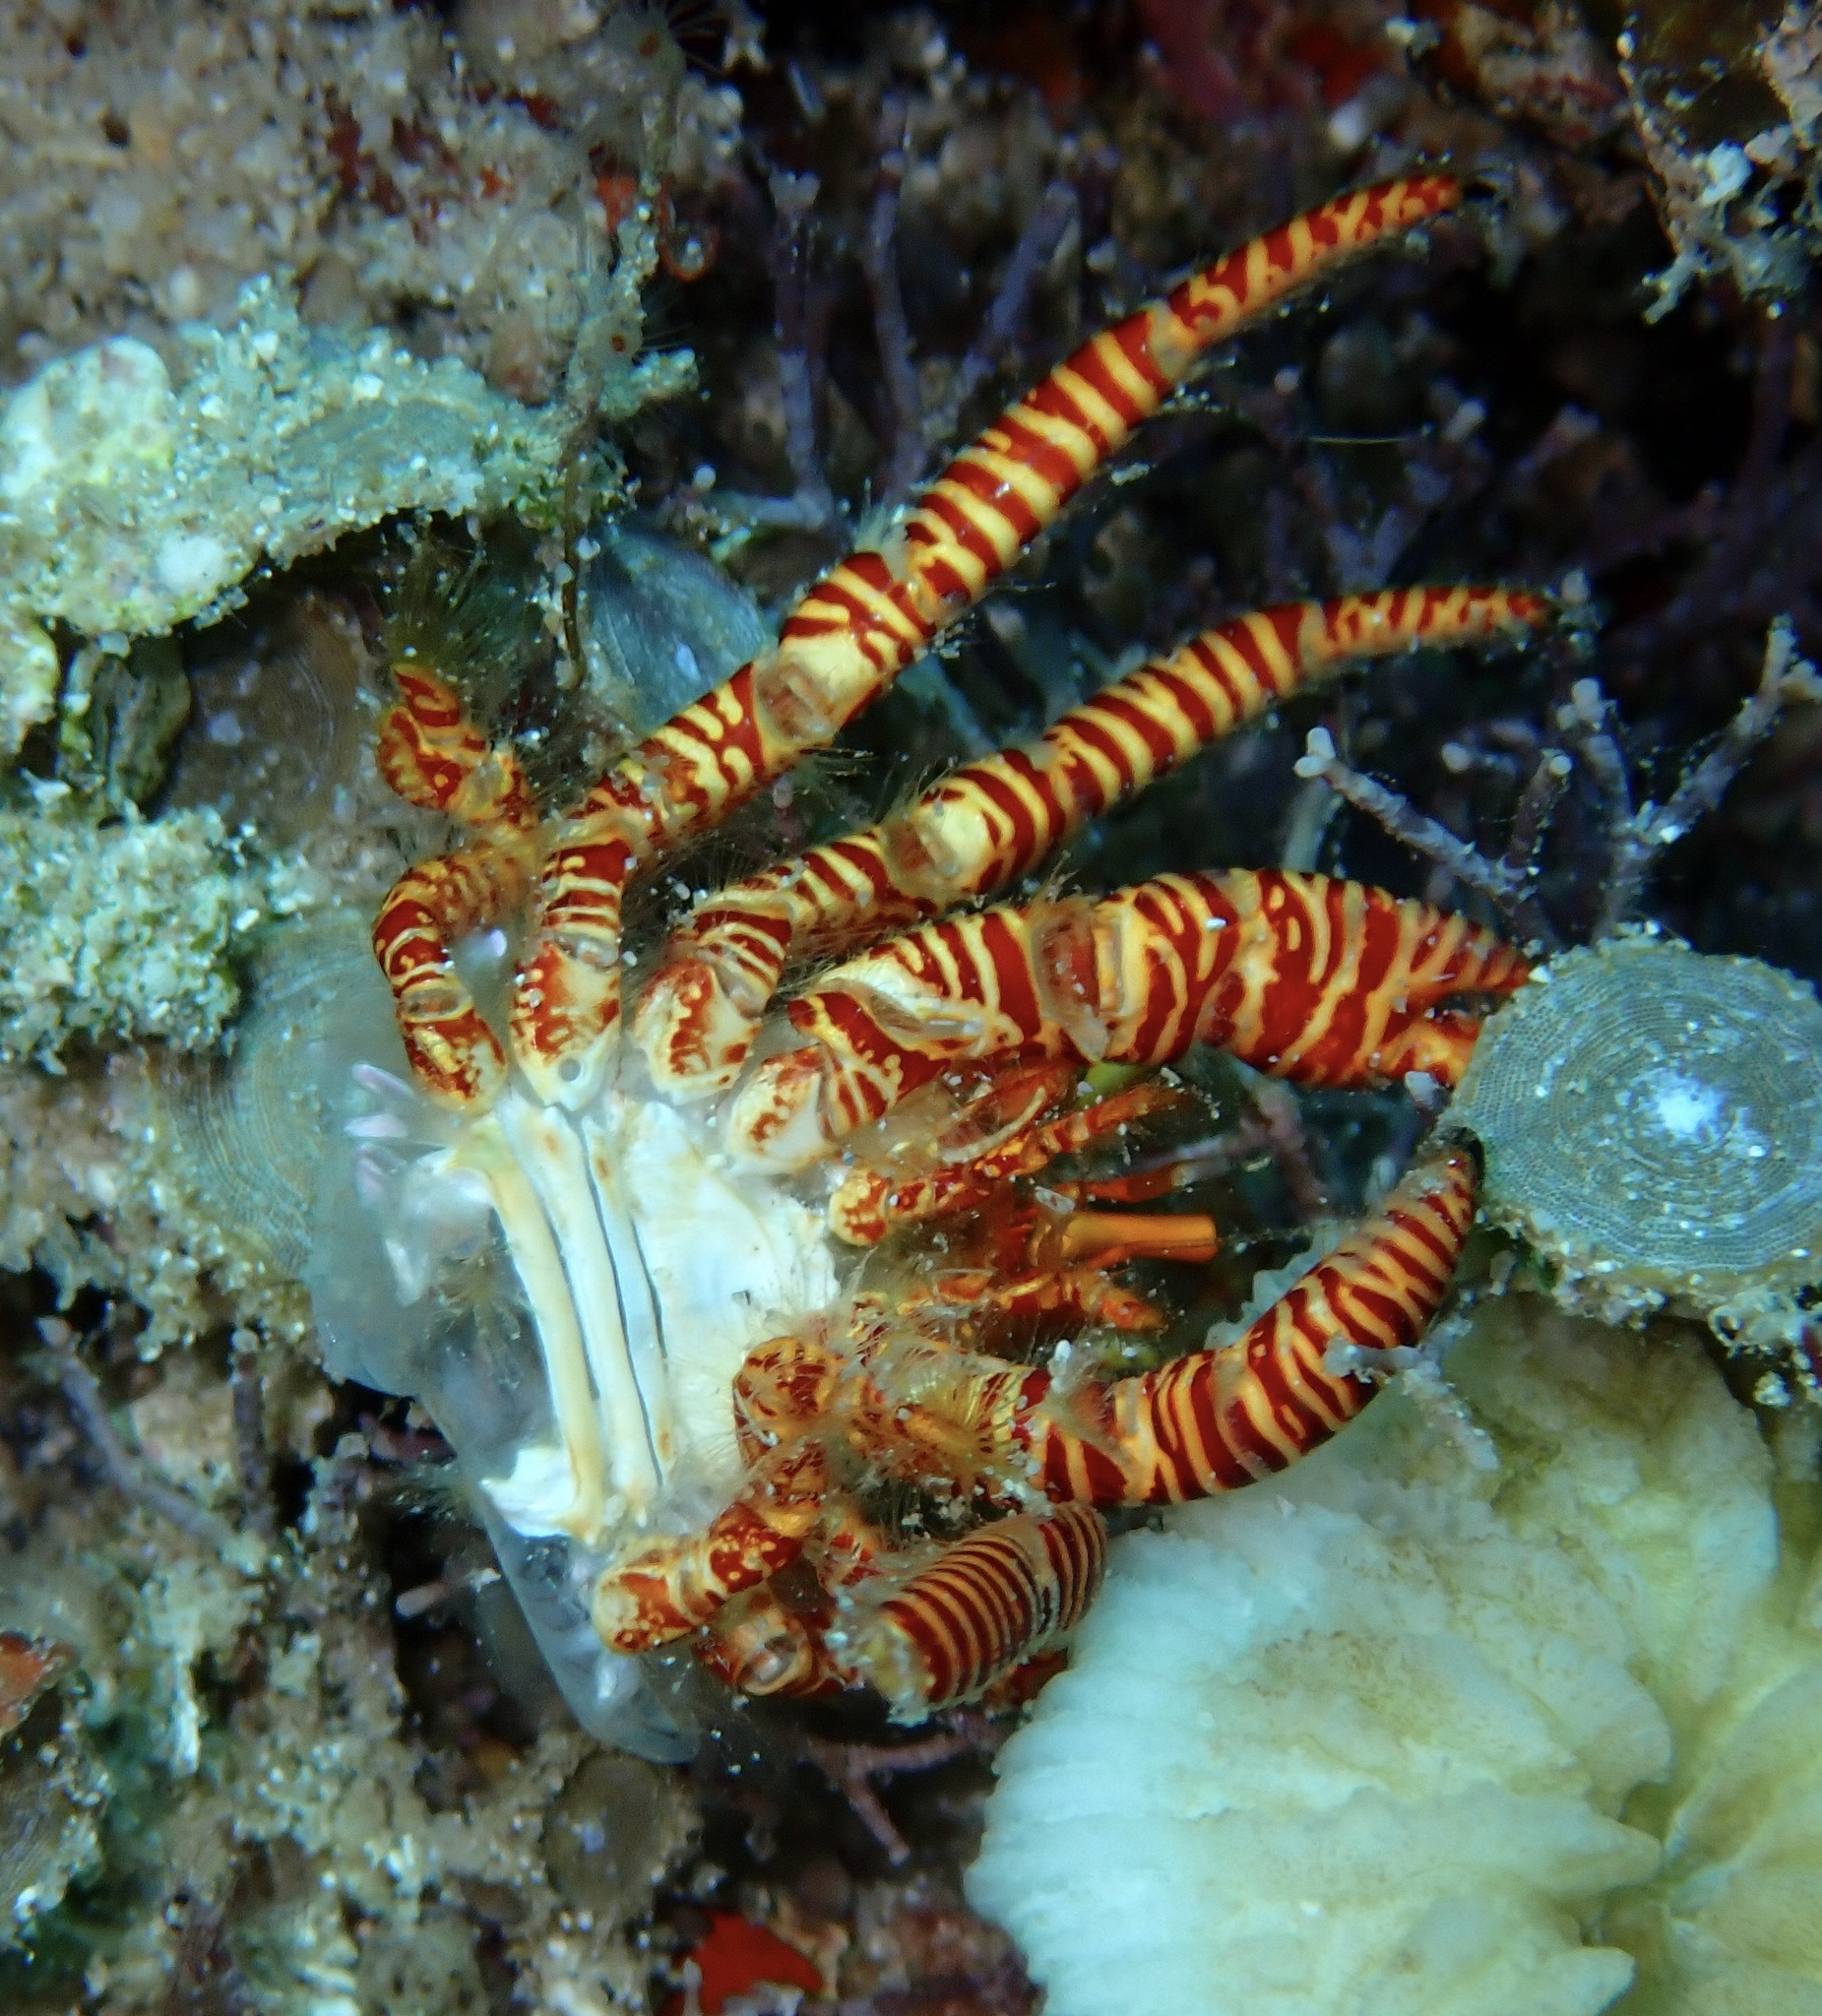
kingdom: Animalia
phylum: Arthropoda
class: Malacostraca
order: Decapoda
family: Diogenidae
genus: Ciliopagurus
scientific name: Ciliopagurus strigatus
